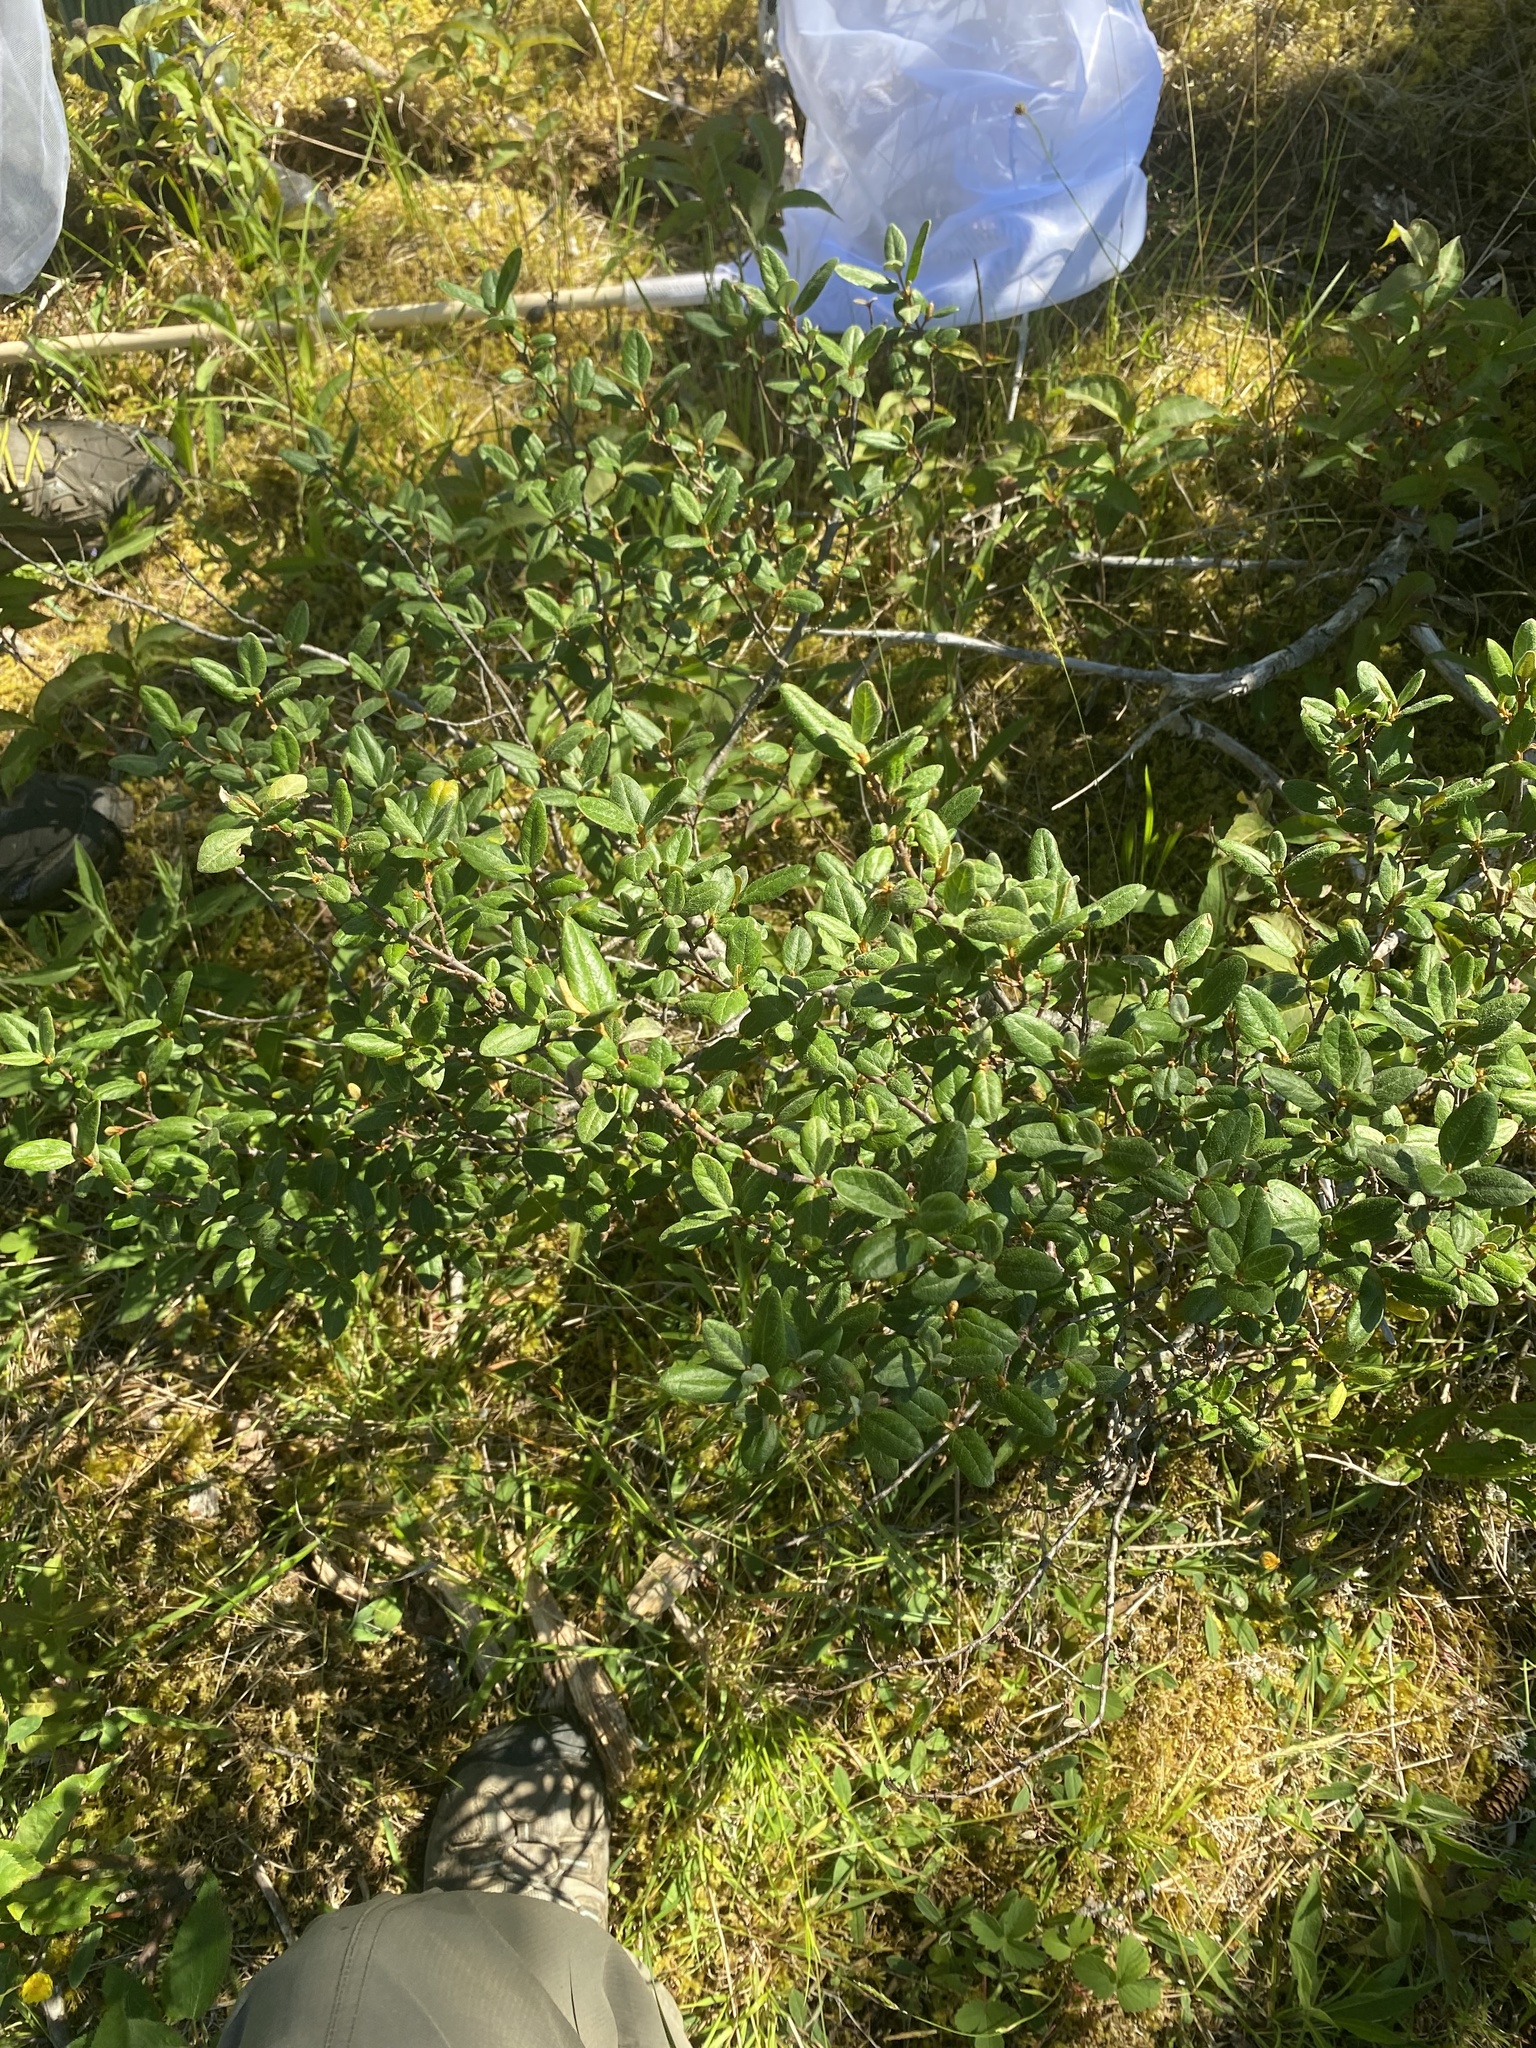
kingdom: Plantae
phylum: Tracheophyta
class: Magnoliopsida
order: Rosales
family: Elaeagnaceae
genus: Shepherdia
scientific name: Shepherdia canadensis
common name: Soapberry
